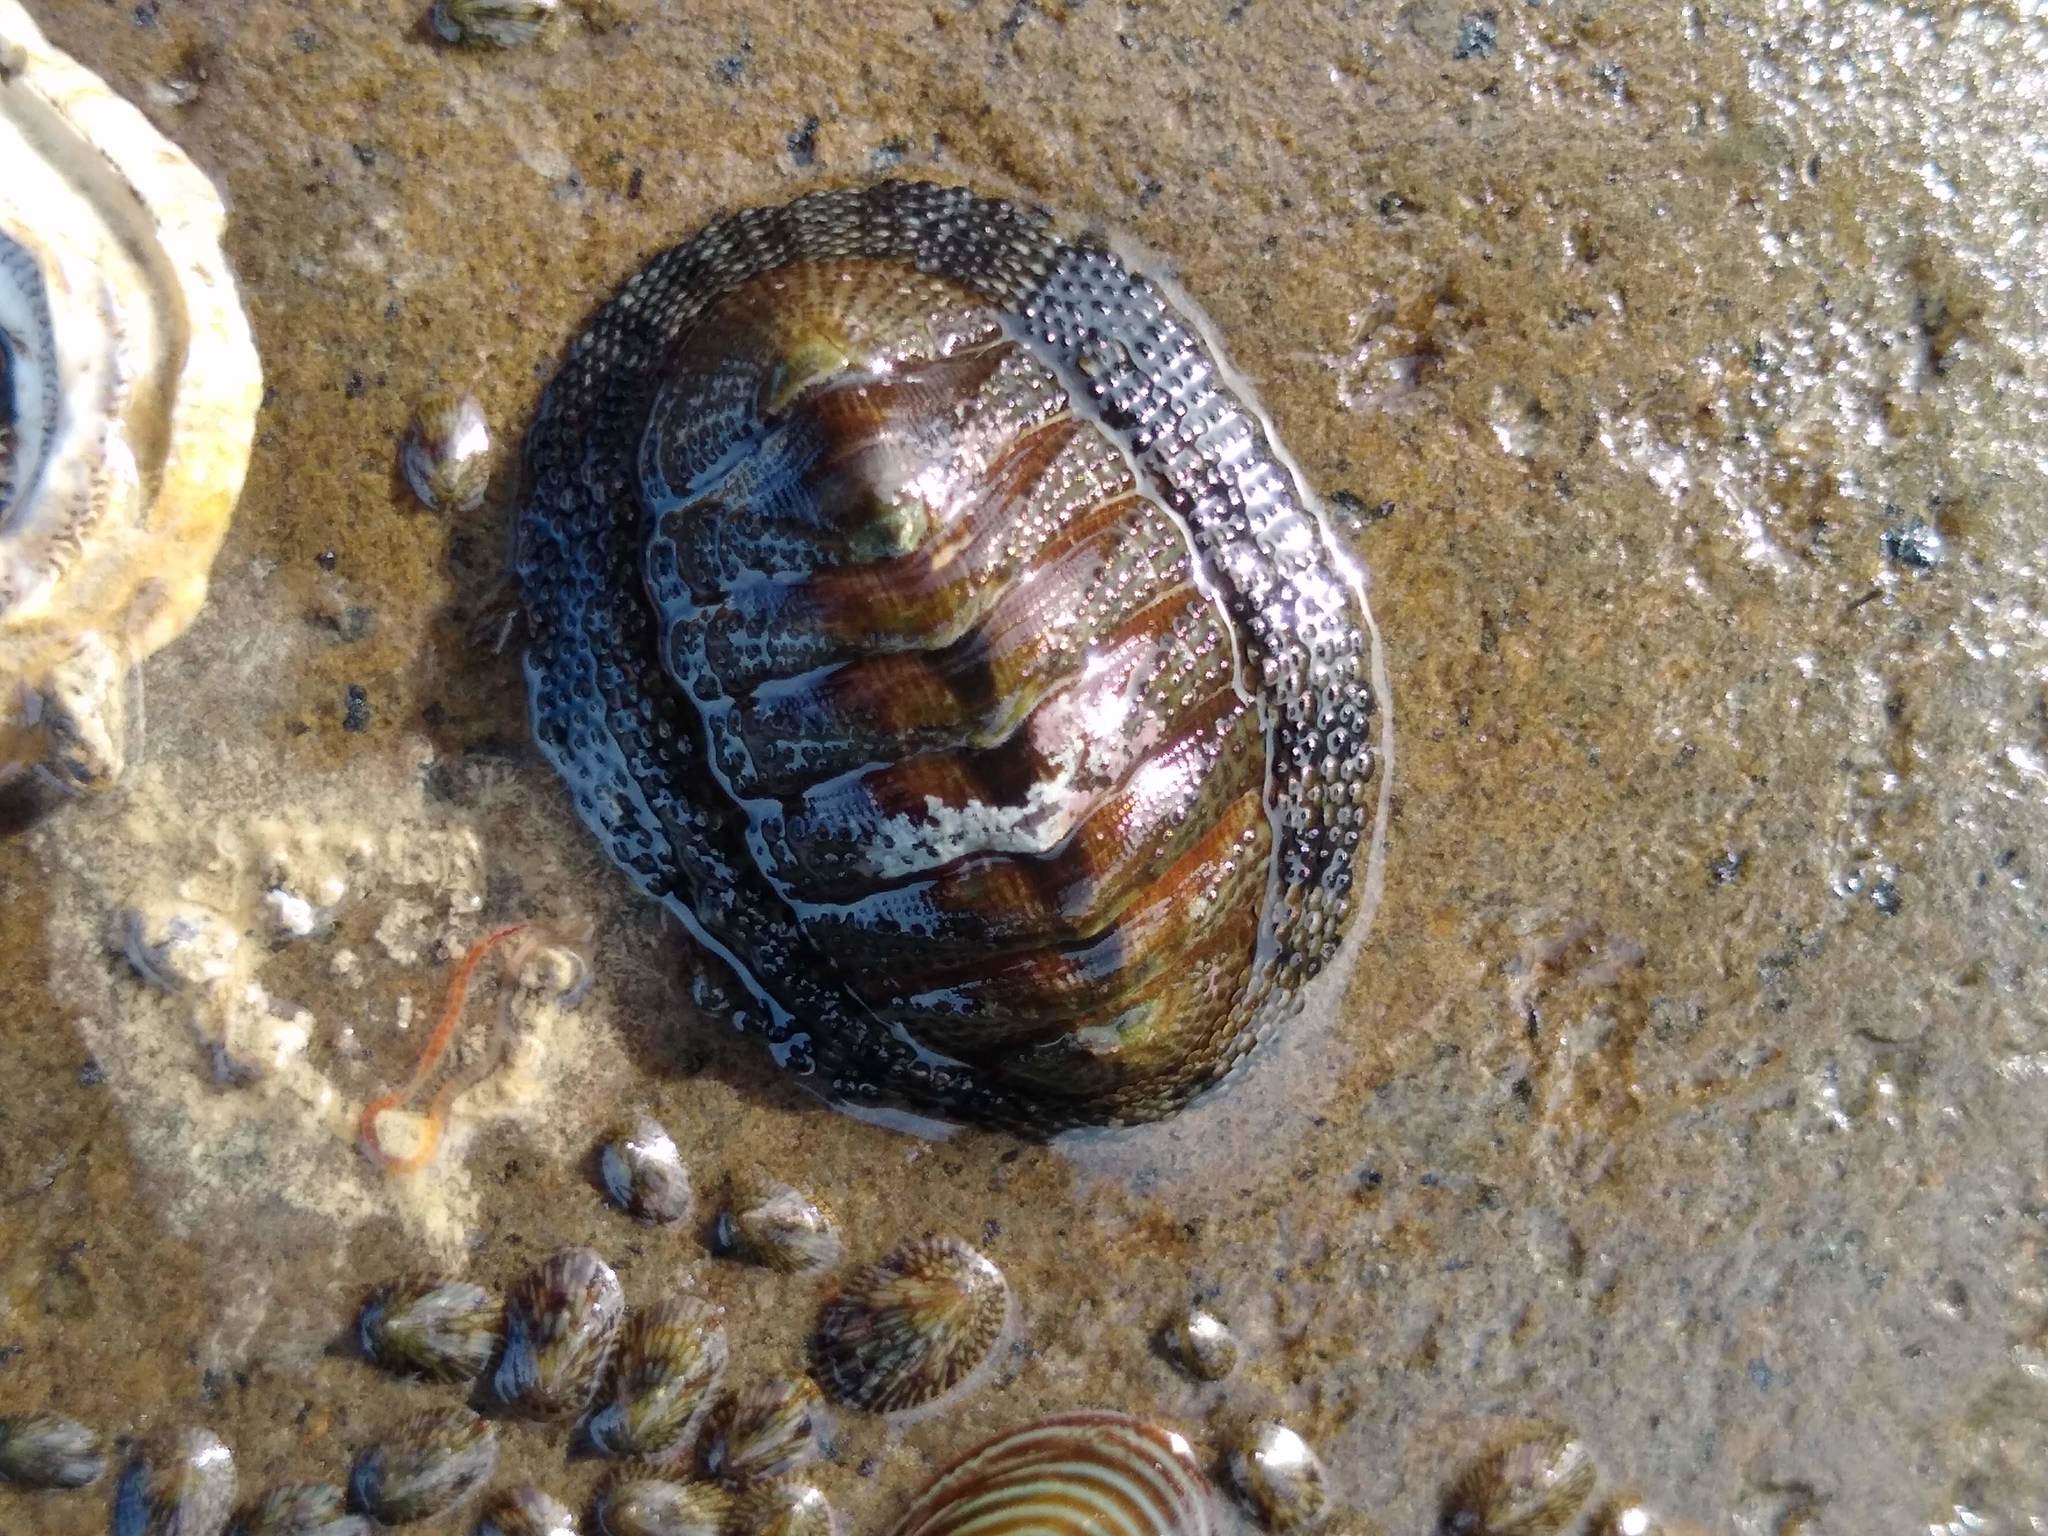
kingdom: Animalia
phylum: Mollusca
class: Polyplacophora
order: Chitonida
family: Chitonidae
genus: Sypharochiton
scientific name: Sypharochiton pelliserpentis
